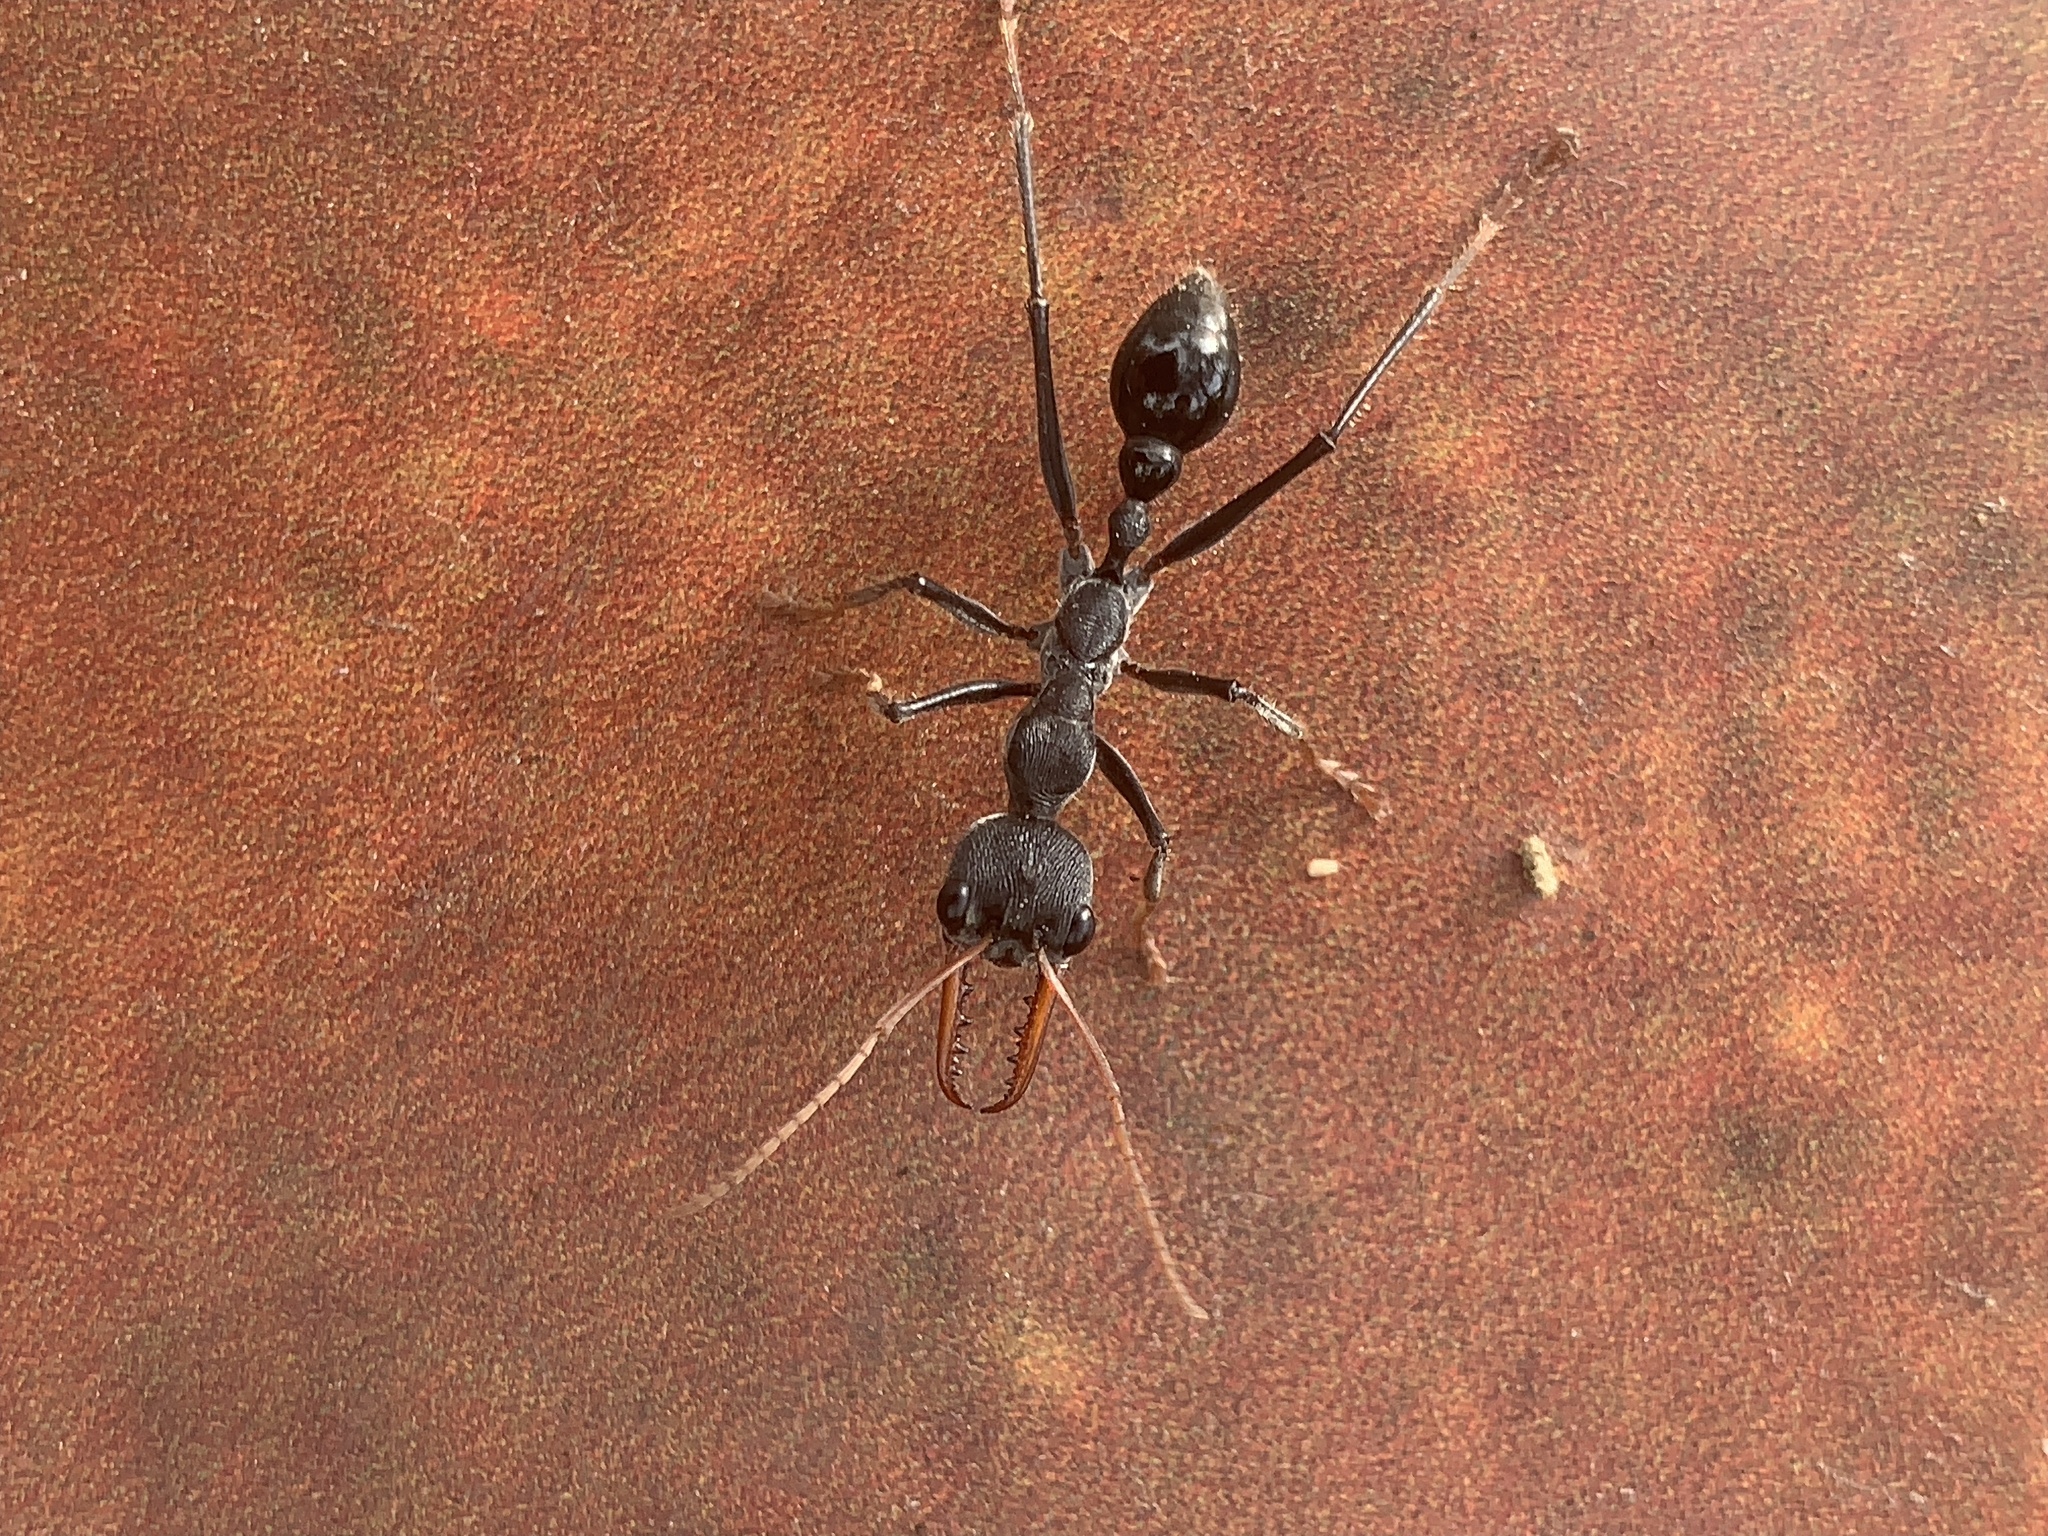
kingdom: Animalia
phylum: Arthropoda
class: Insecta
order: Hymenoptera
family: Formicidae
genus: Myrmecia
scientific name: Myrmecia simillima
